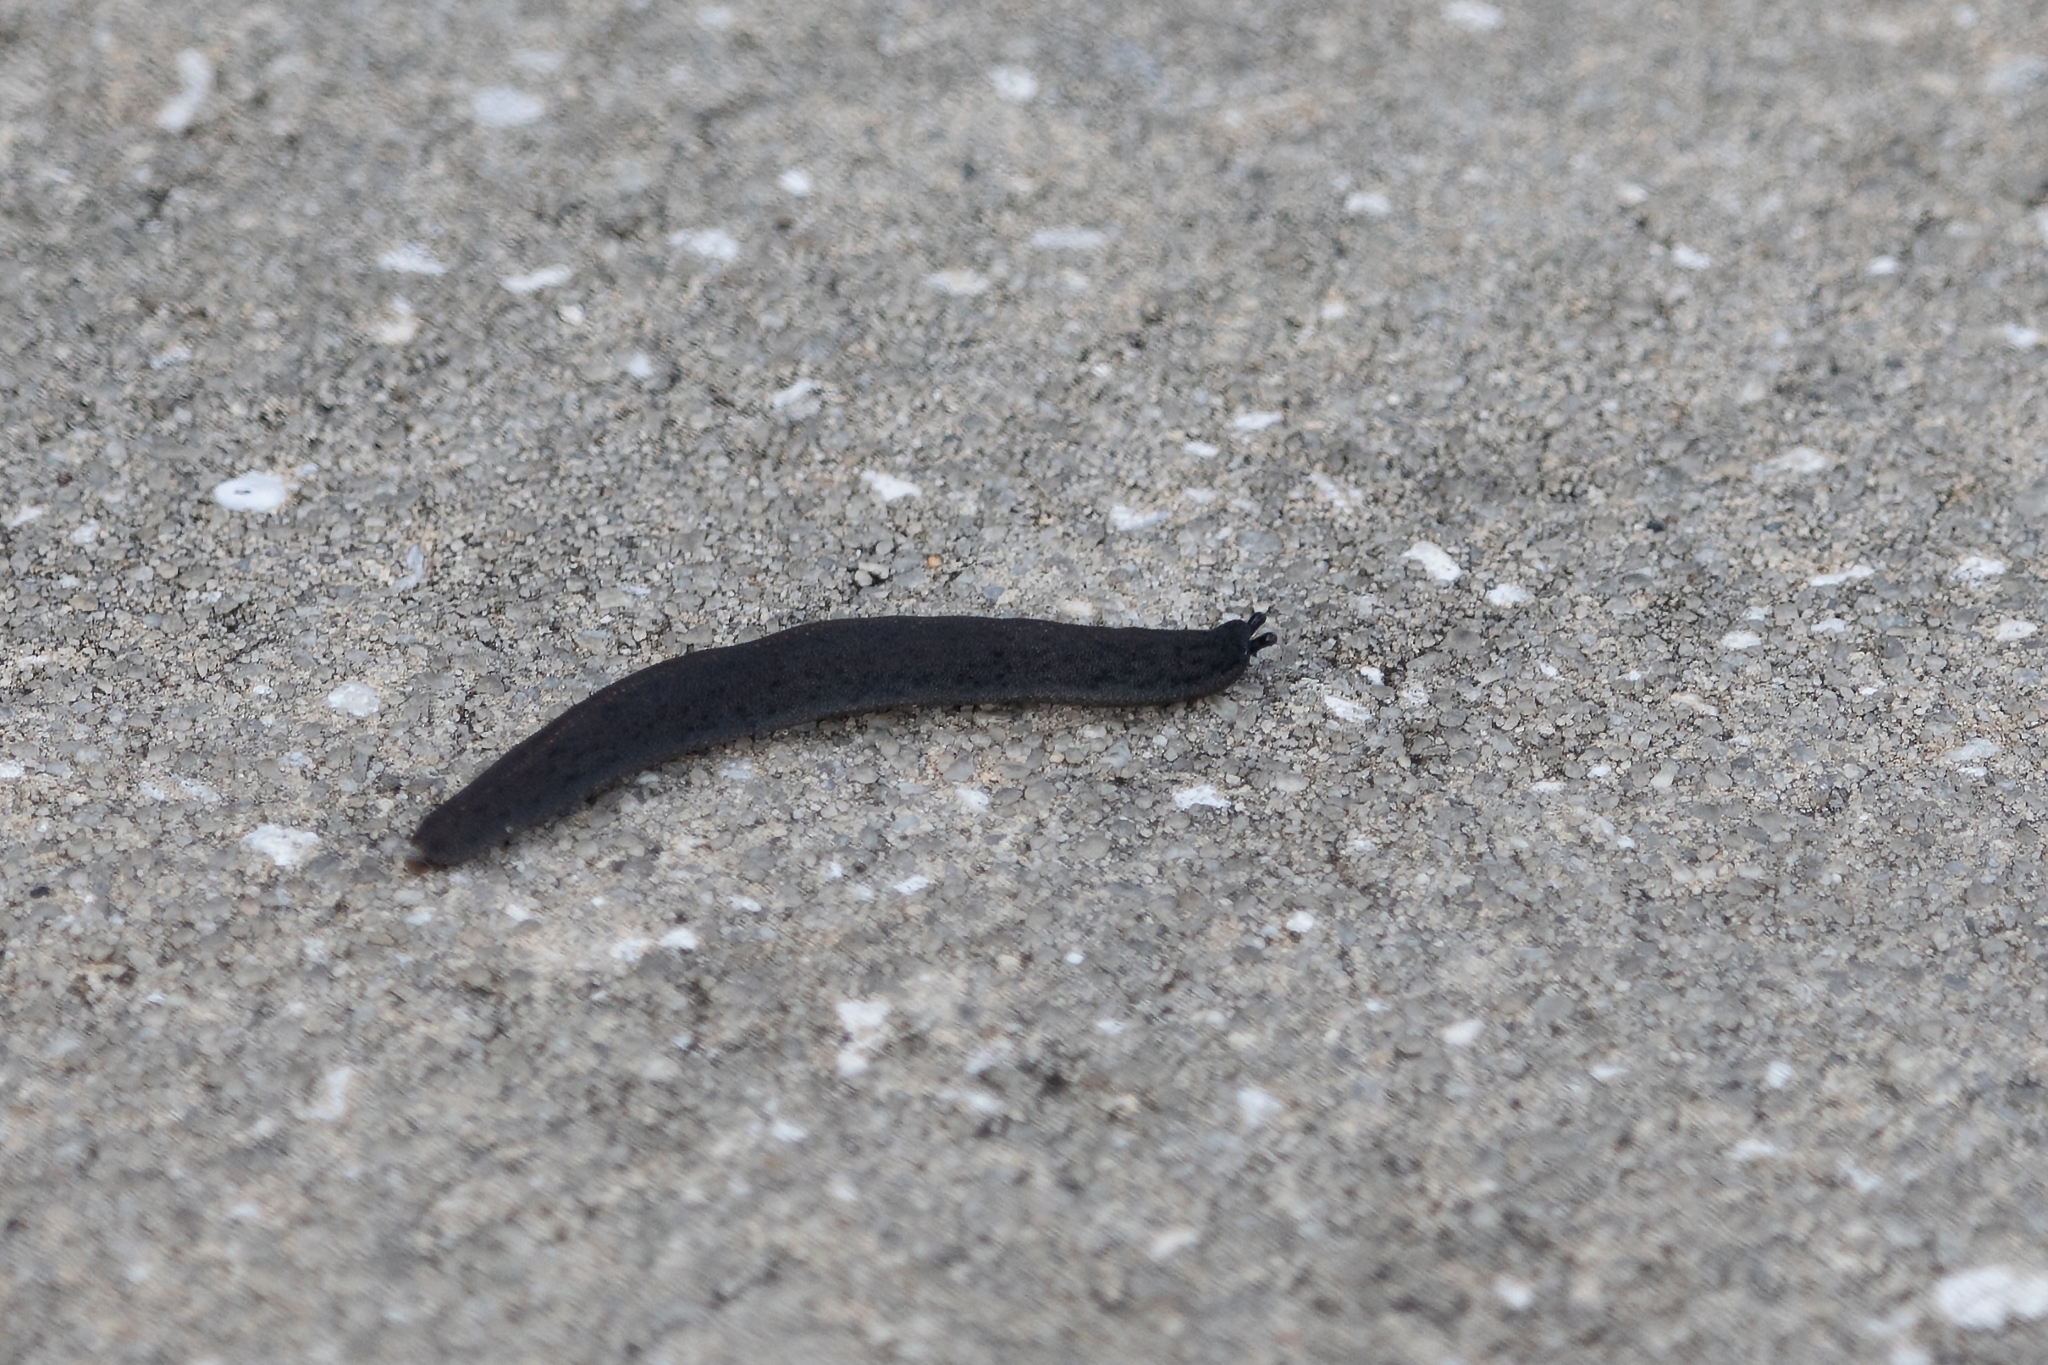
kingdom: Animalia
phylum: Mollusca
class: Gastropoda
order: Systellommatophora
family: Veronicellidae
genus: Belocaulus
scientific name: Belocaulus angustipes
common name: Black velvet leatherleaf slug
